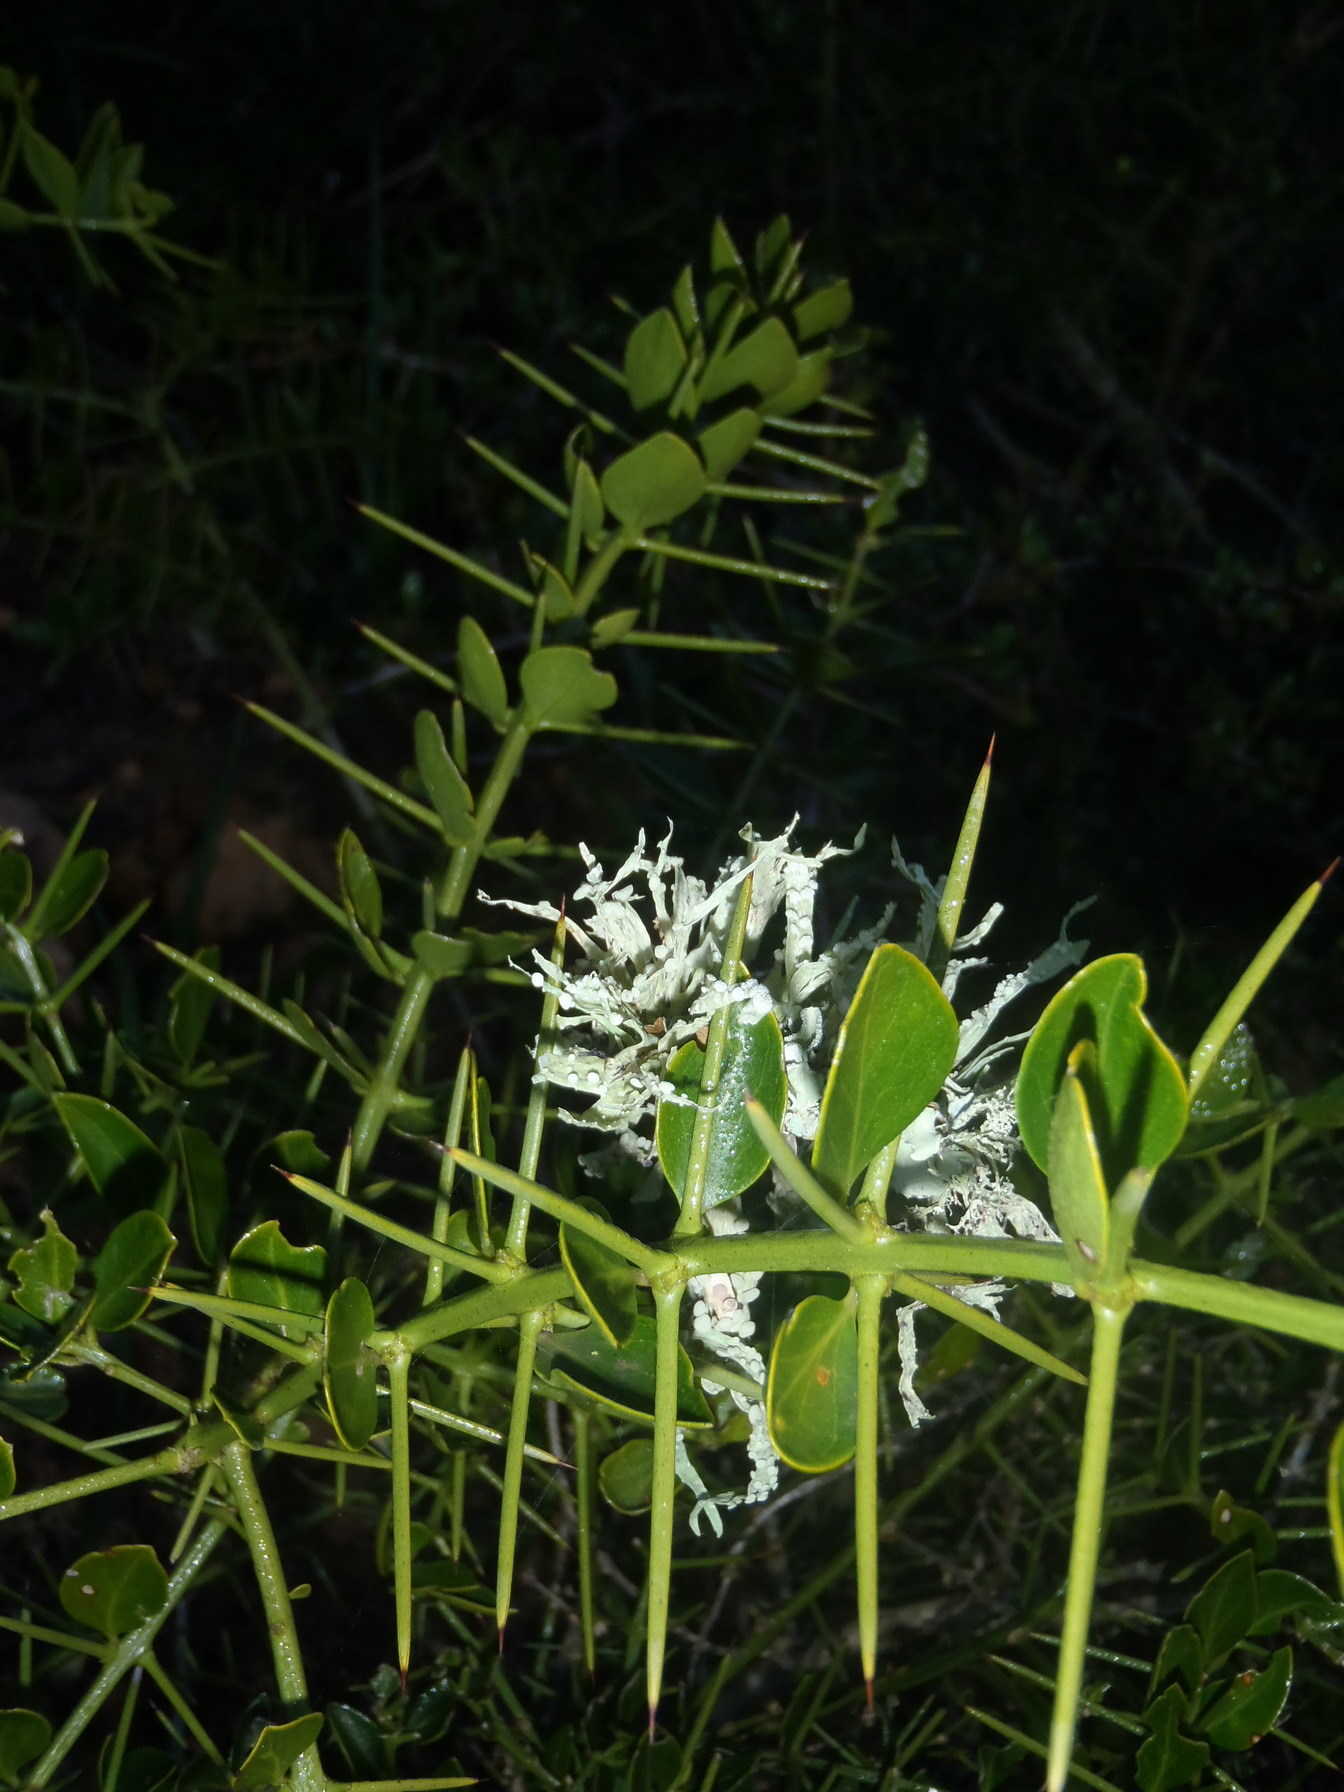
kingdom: Fungi
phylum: Ascomycota
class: Lecanoromycetes
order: Lecanorales
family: Ramalinaceae
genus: Ramalina
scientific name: Ramalina celastri
